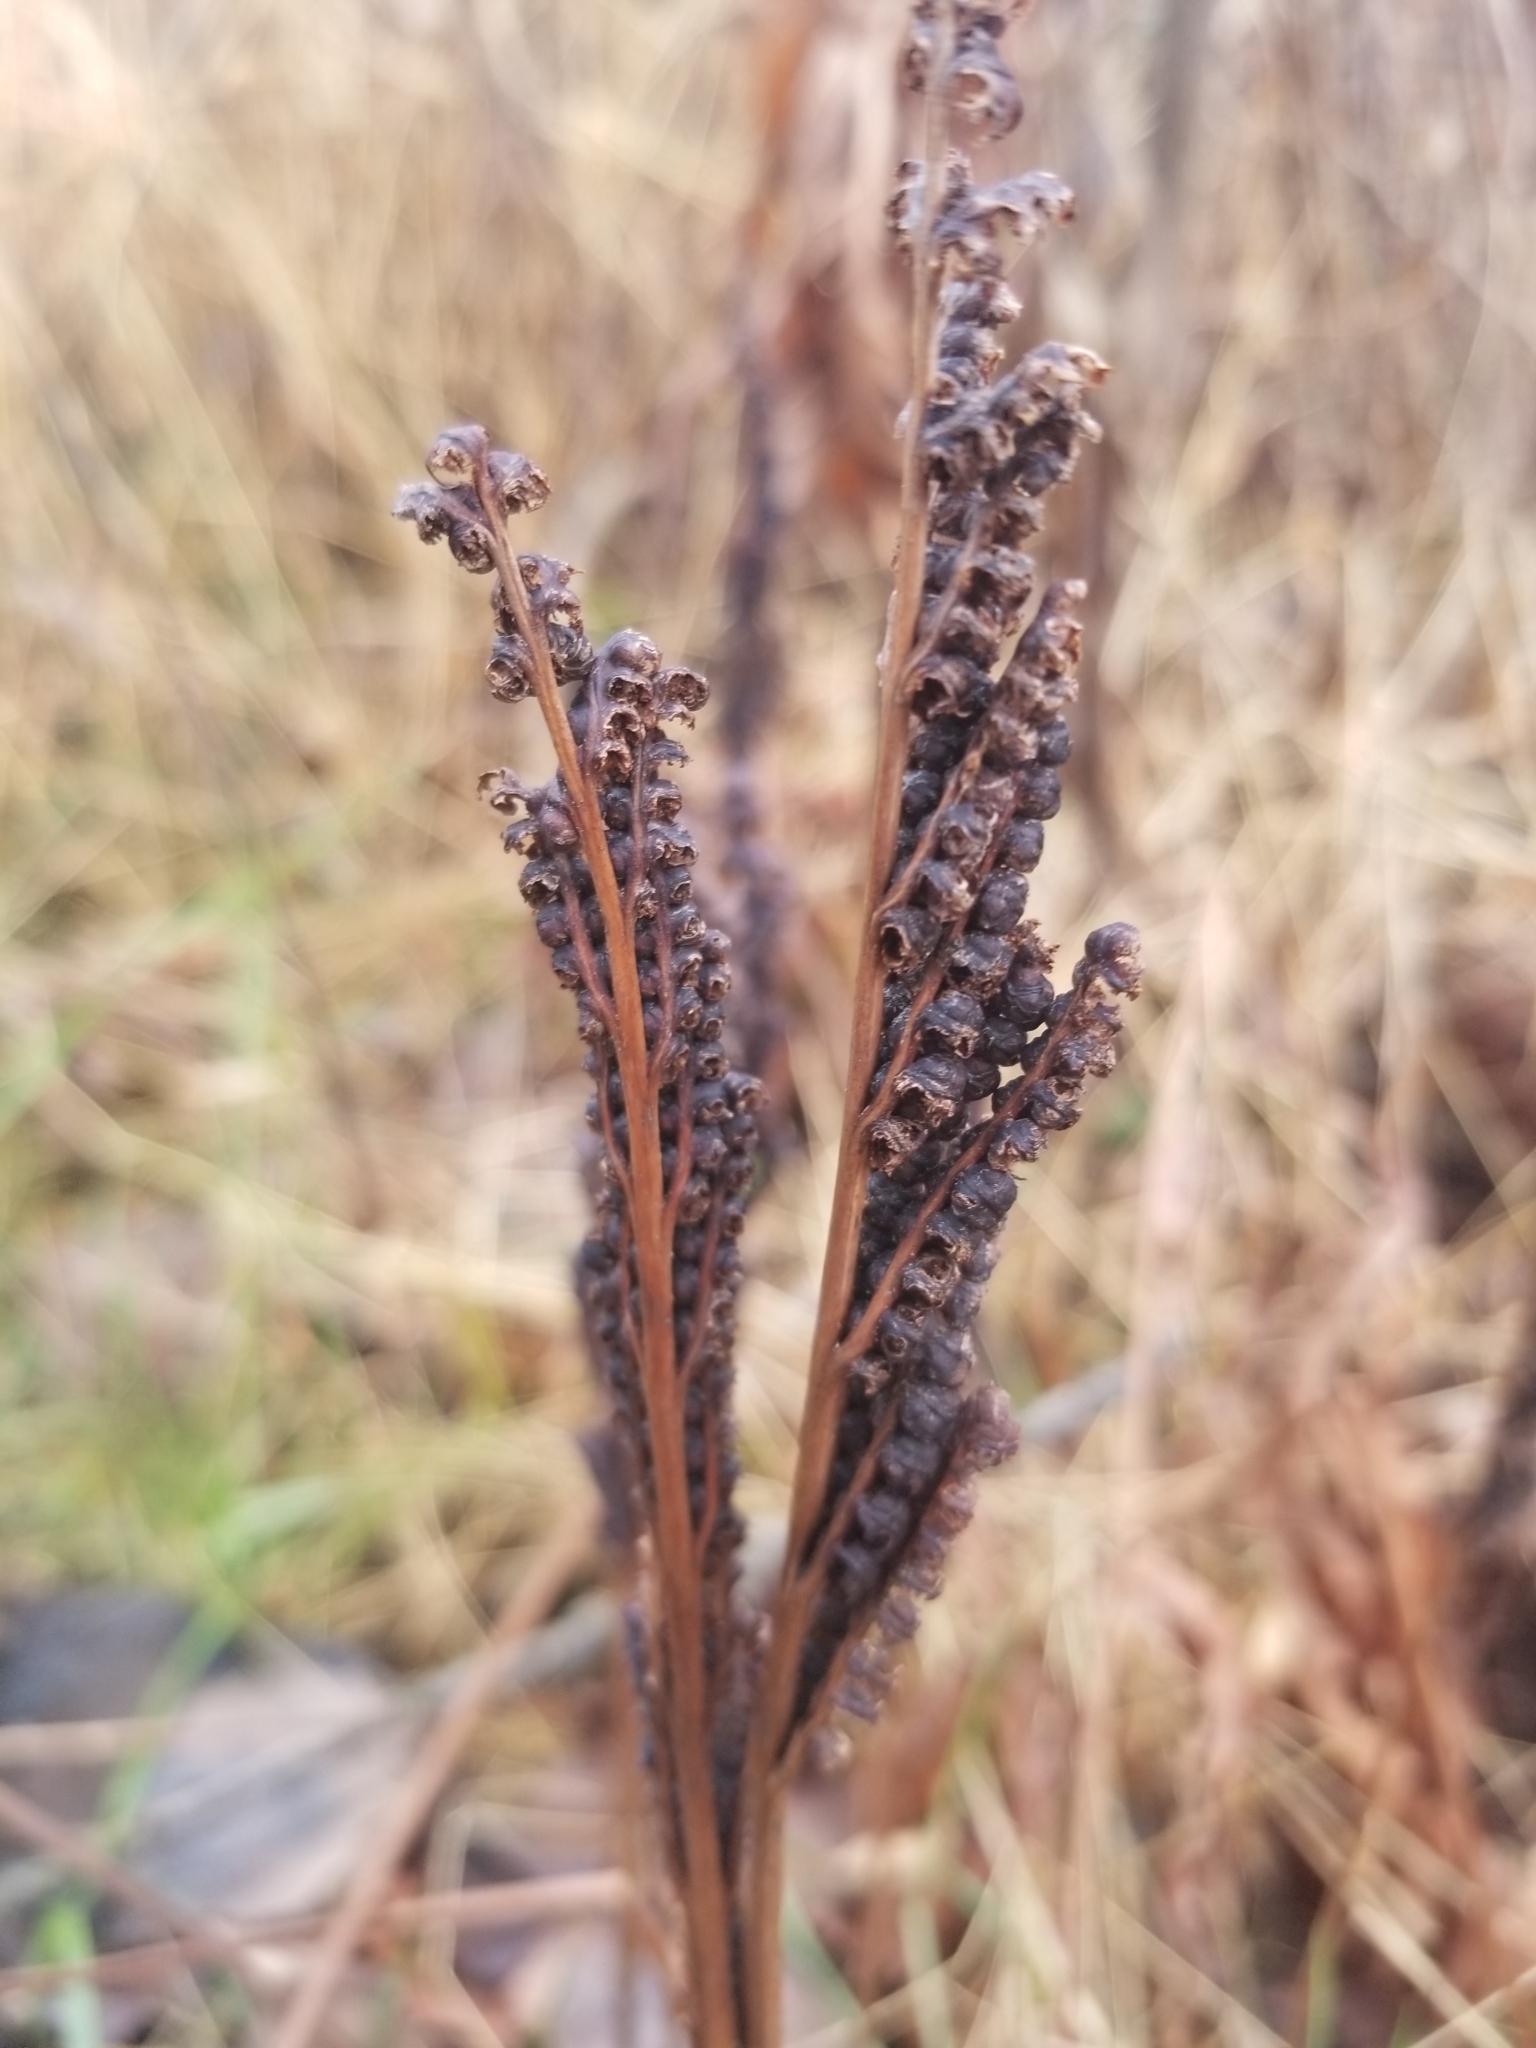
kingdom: Plantae
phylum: Tracheophyta
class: Polypodiopsida
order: Polypodiales
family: Onocleaceae
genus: Onoclea
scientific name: Onoclea sensibilis
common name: Sensitive fern
